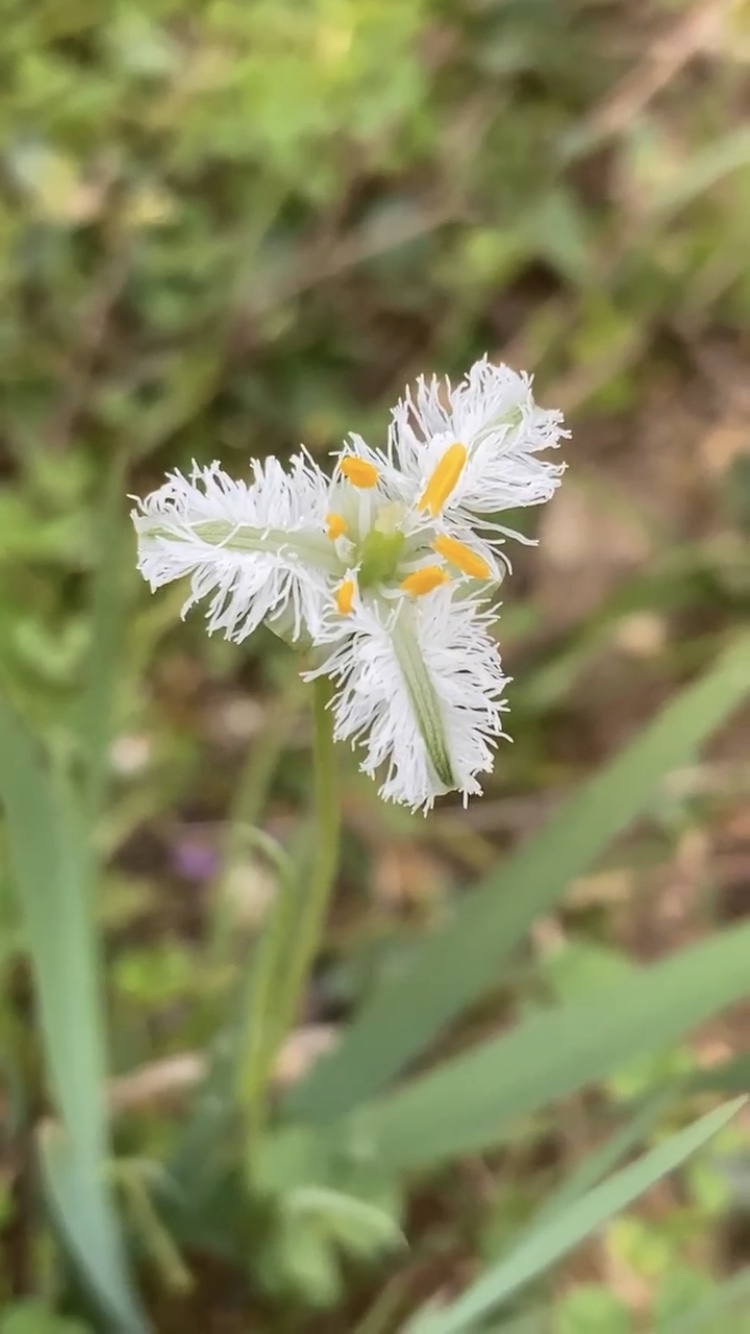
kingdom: Plantae
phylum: Tracheophyta
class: Liliopsida
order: Asparagales
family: Asparagaceae
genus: Trichopetalum
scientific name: Trichopetalum plumosum
